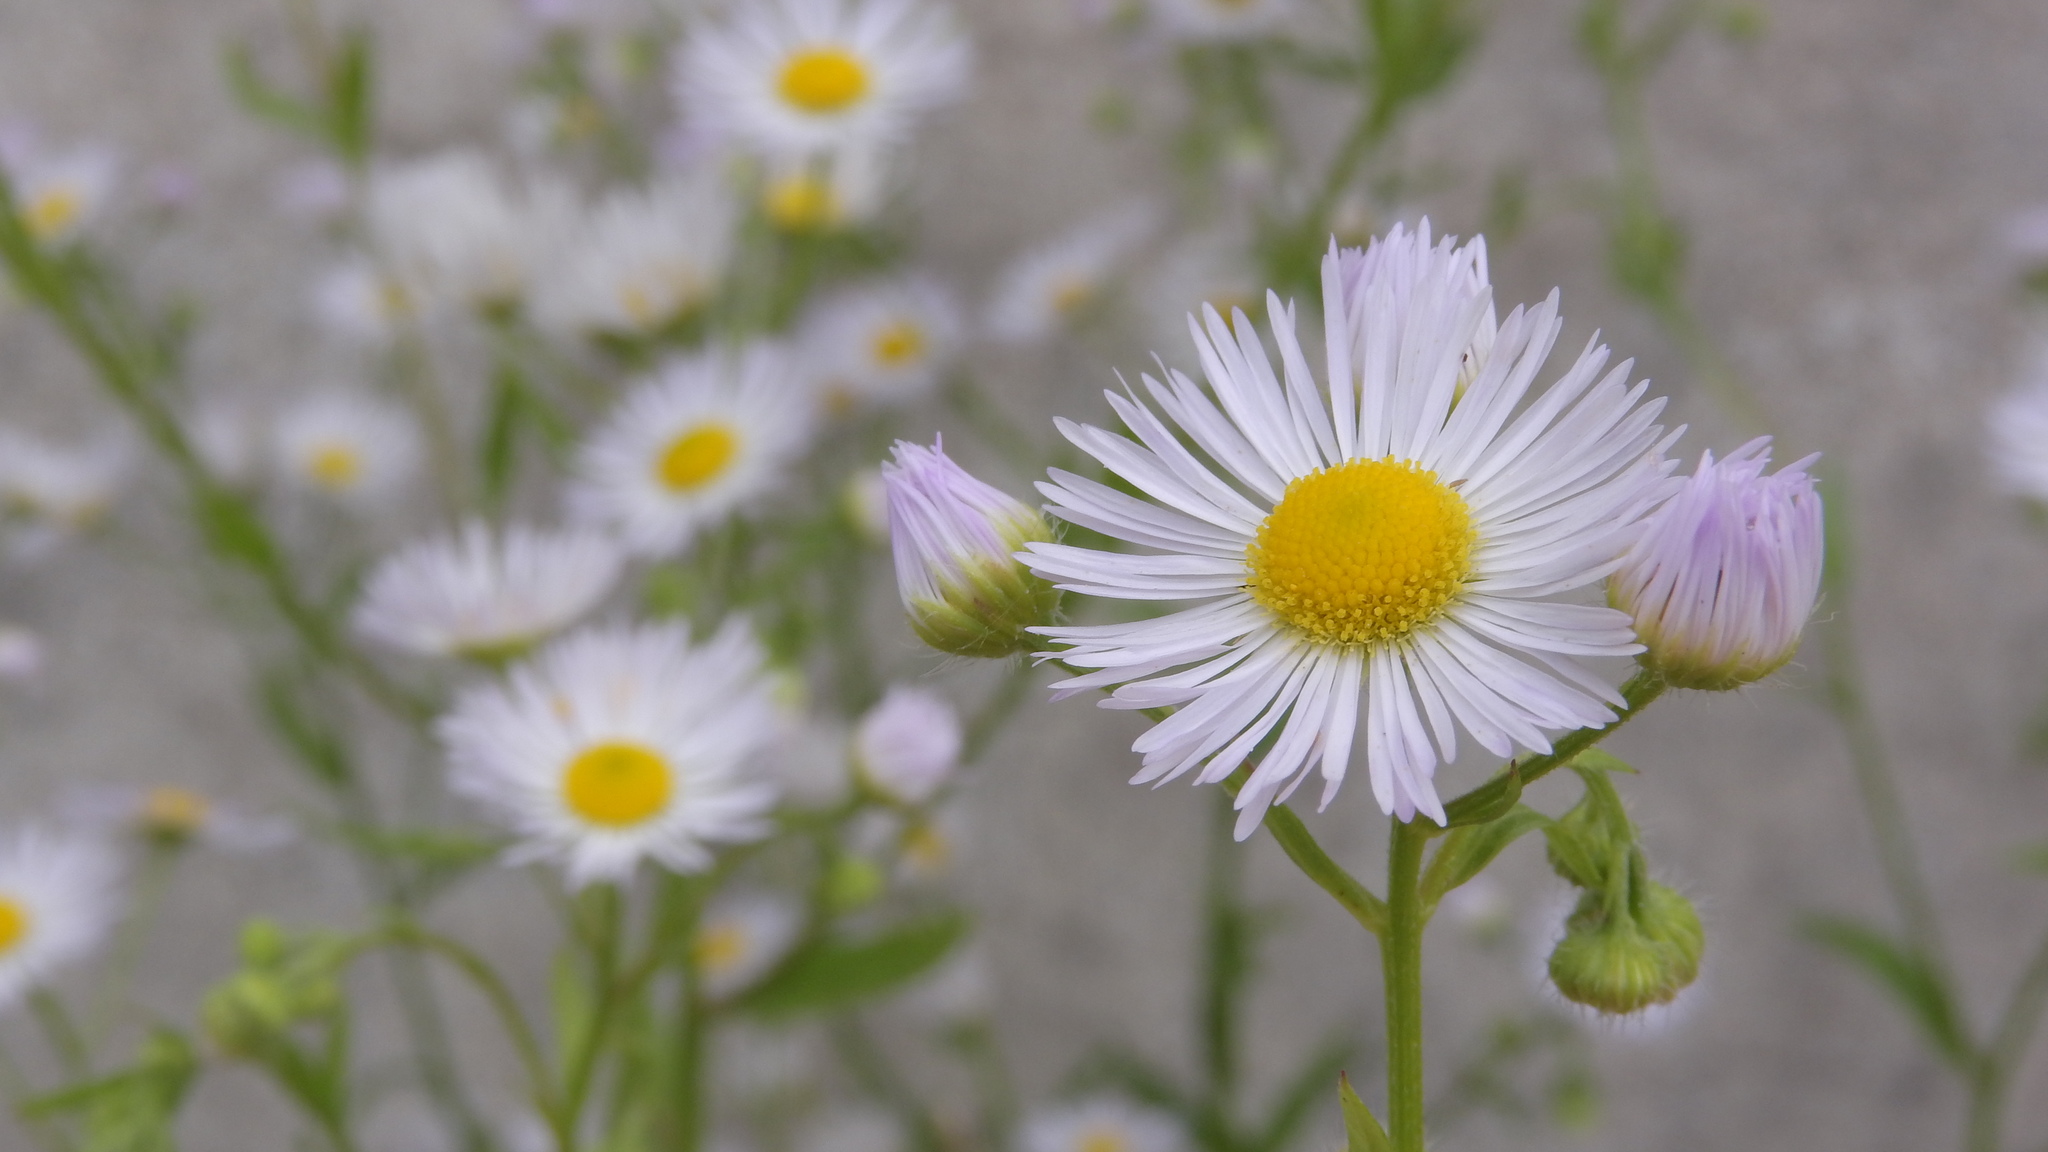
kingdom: Plantae
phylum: Tracheophyta
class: Magnoliopsida
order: Asterales
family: Asteraceae
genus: Erigeron
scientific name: Erigeron annuus
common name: Tall fleabane
